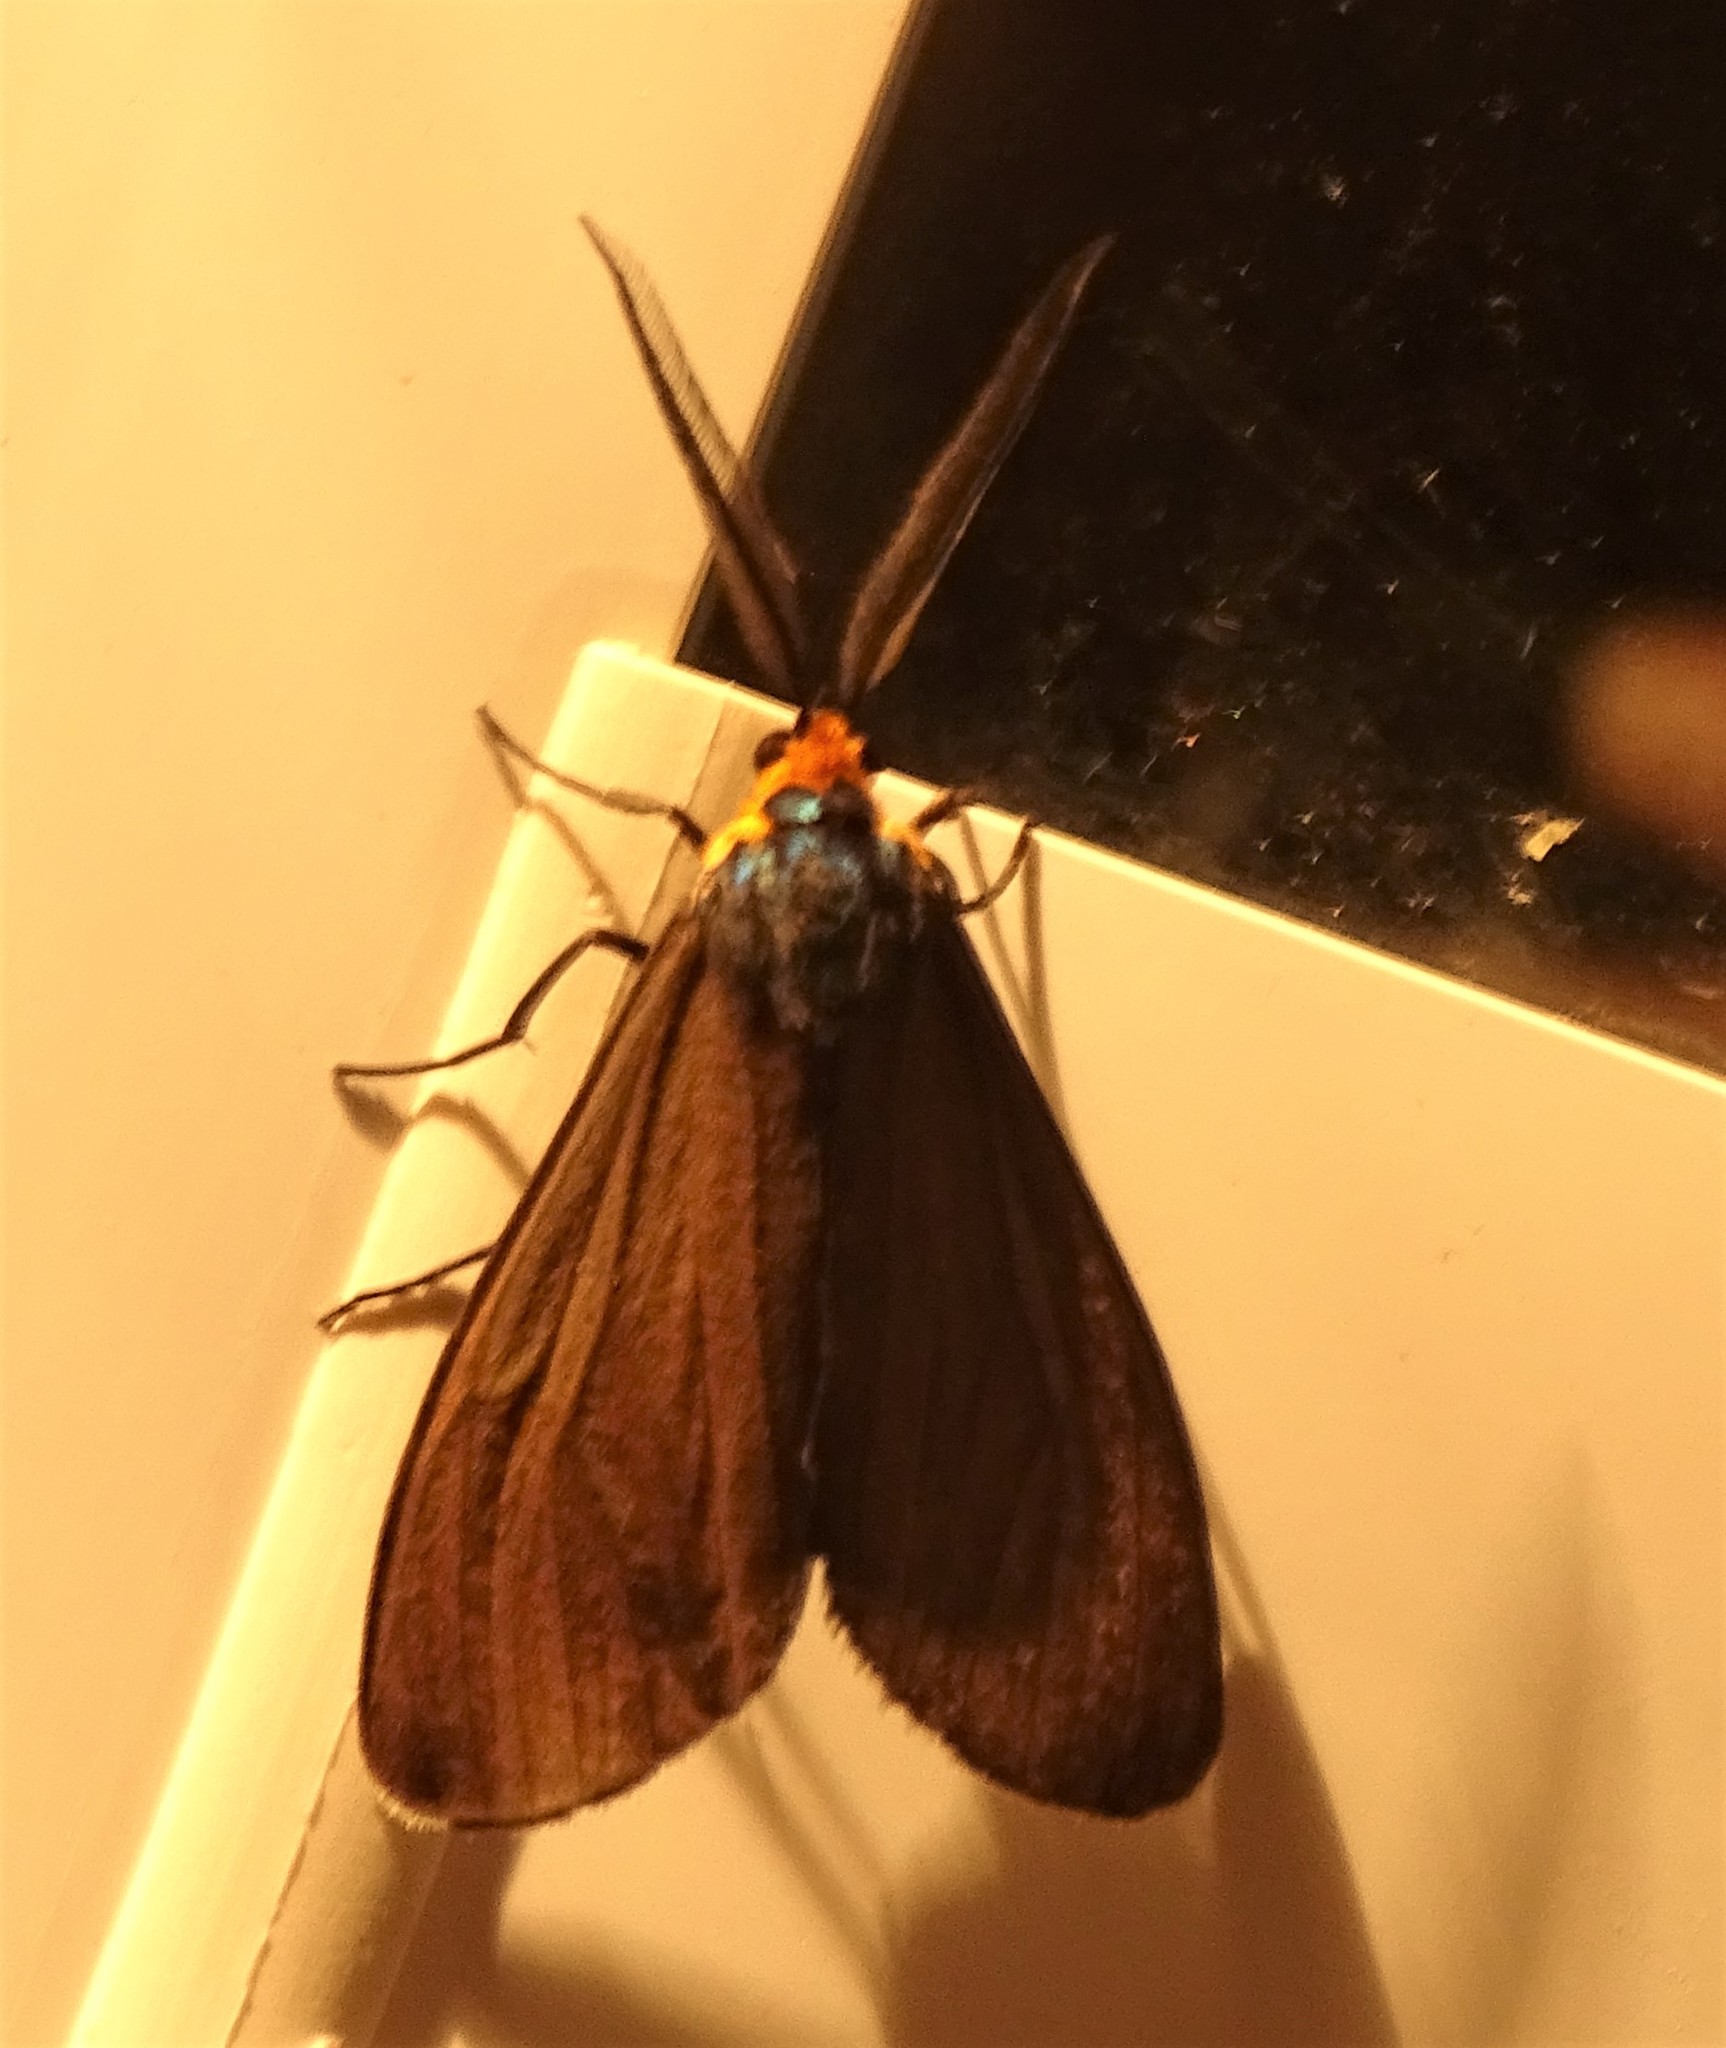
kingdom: Animalia
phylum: Arthropoda
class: Insecta
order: Lepidoptera
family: Erebidae
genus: Ctenucha
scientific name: Ctenucha virginica
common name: Virginia ctenucha moth
